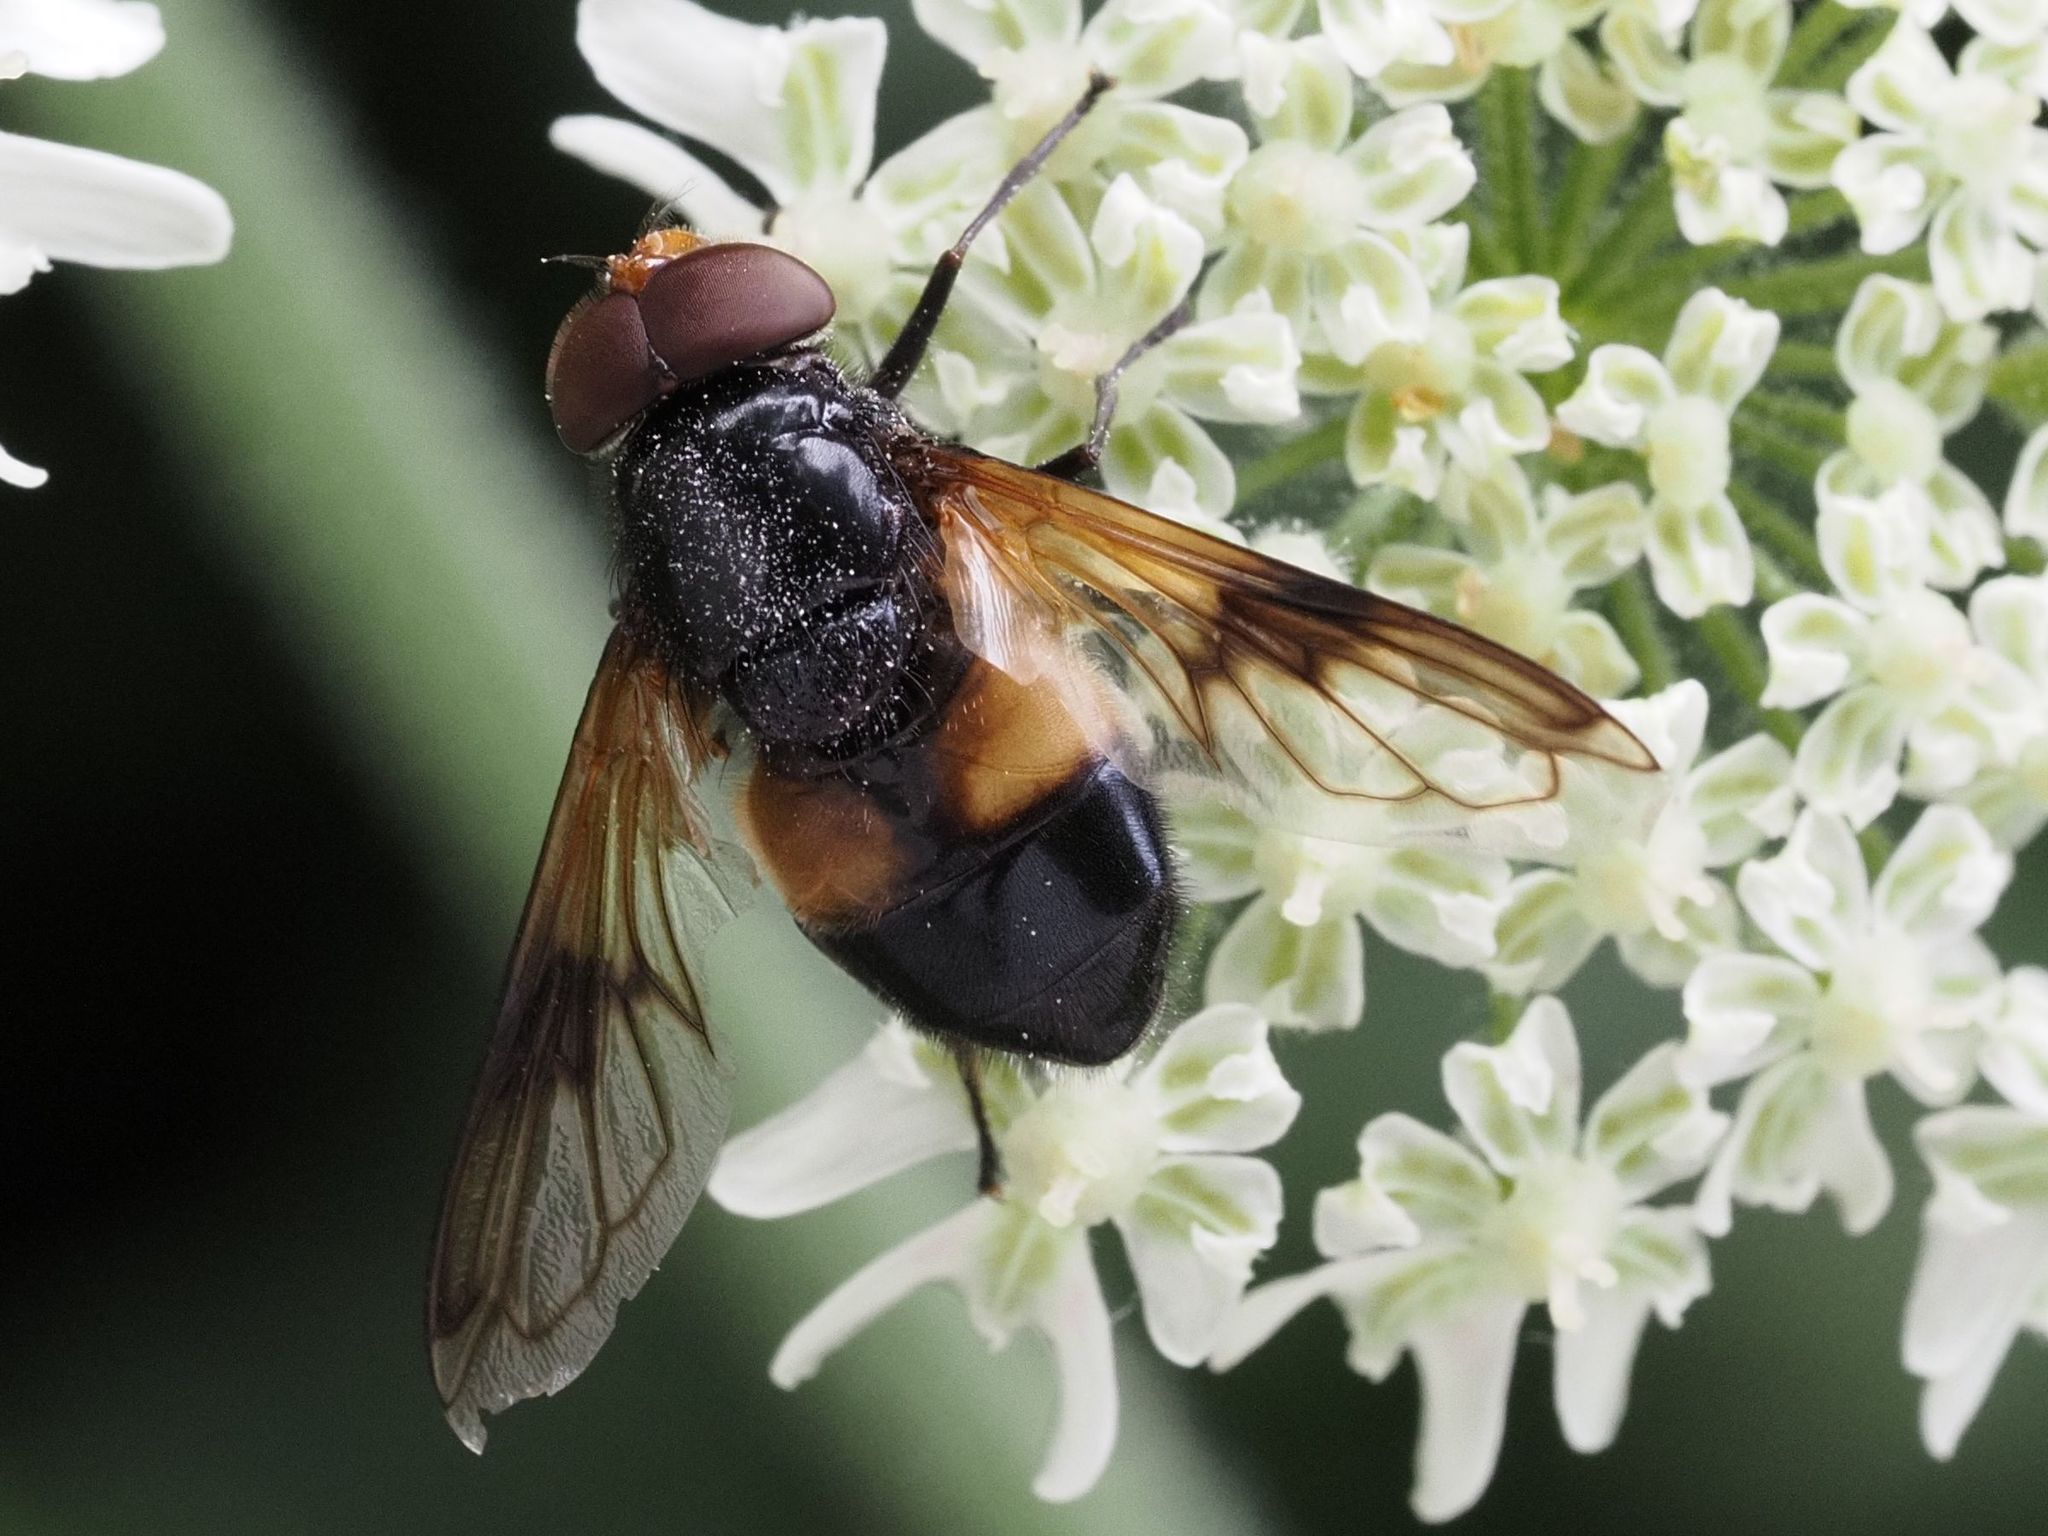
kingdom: Animalia
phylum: Arthropoda
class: Insecta
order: Diptera
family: Syrphidae
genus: Volucella
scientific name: Volucella pellucens
